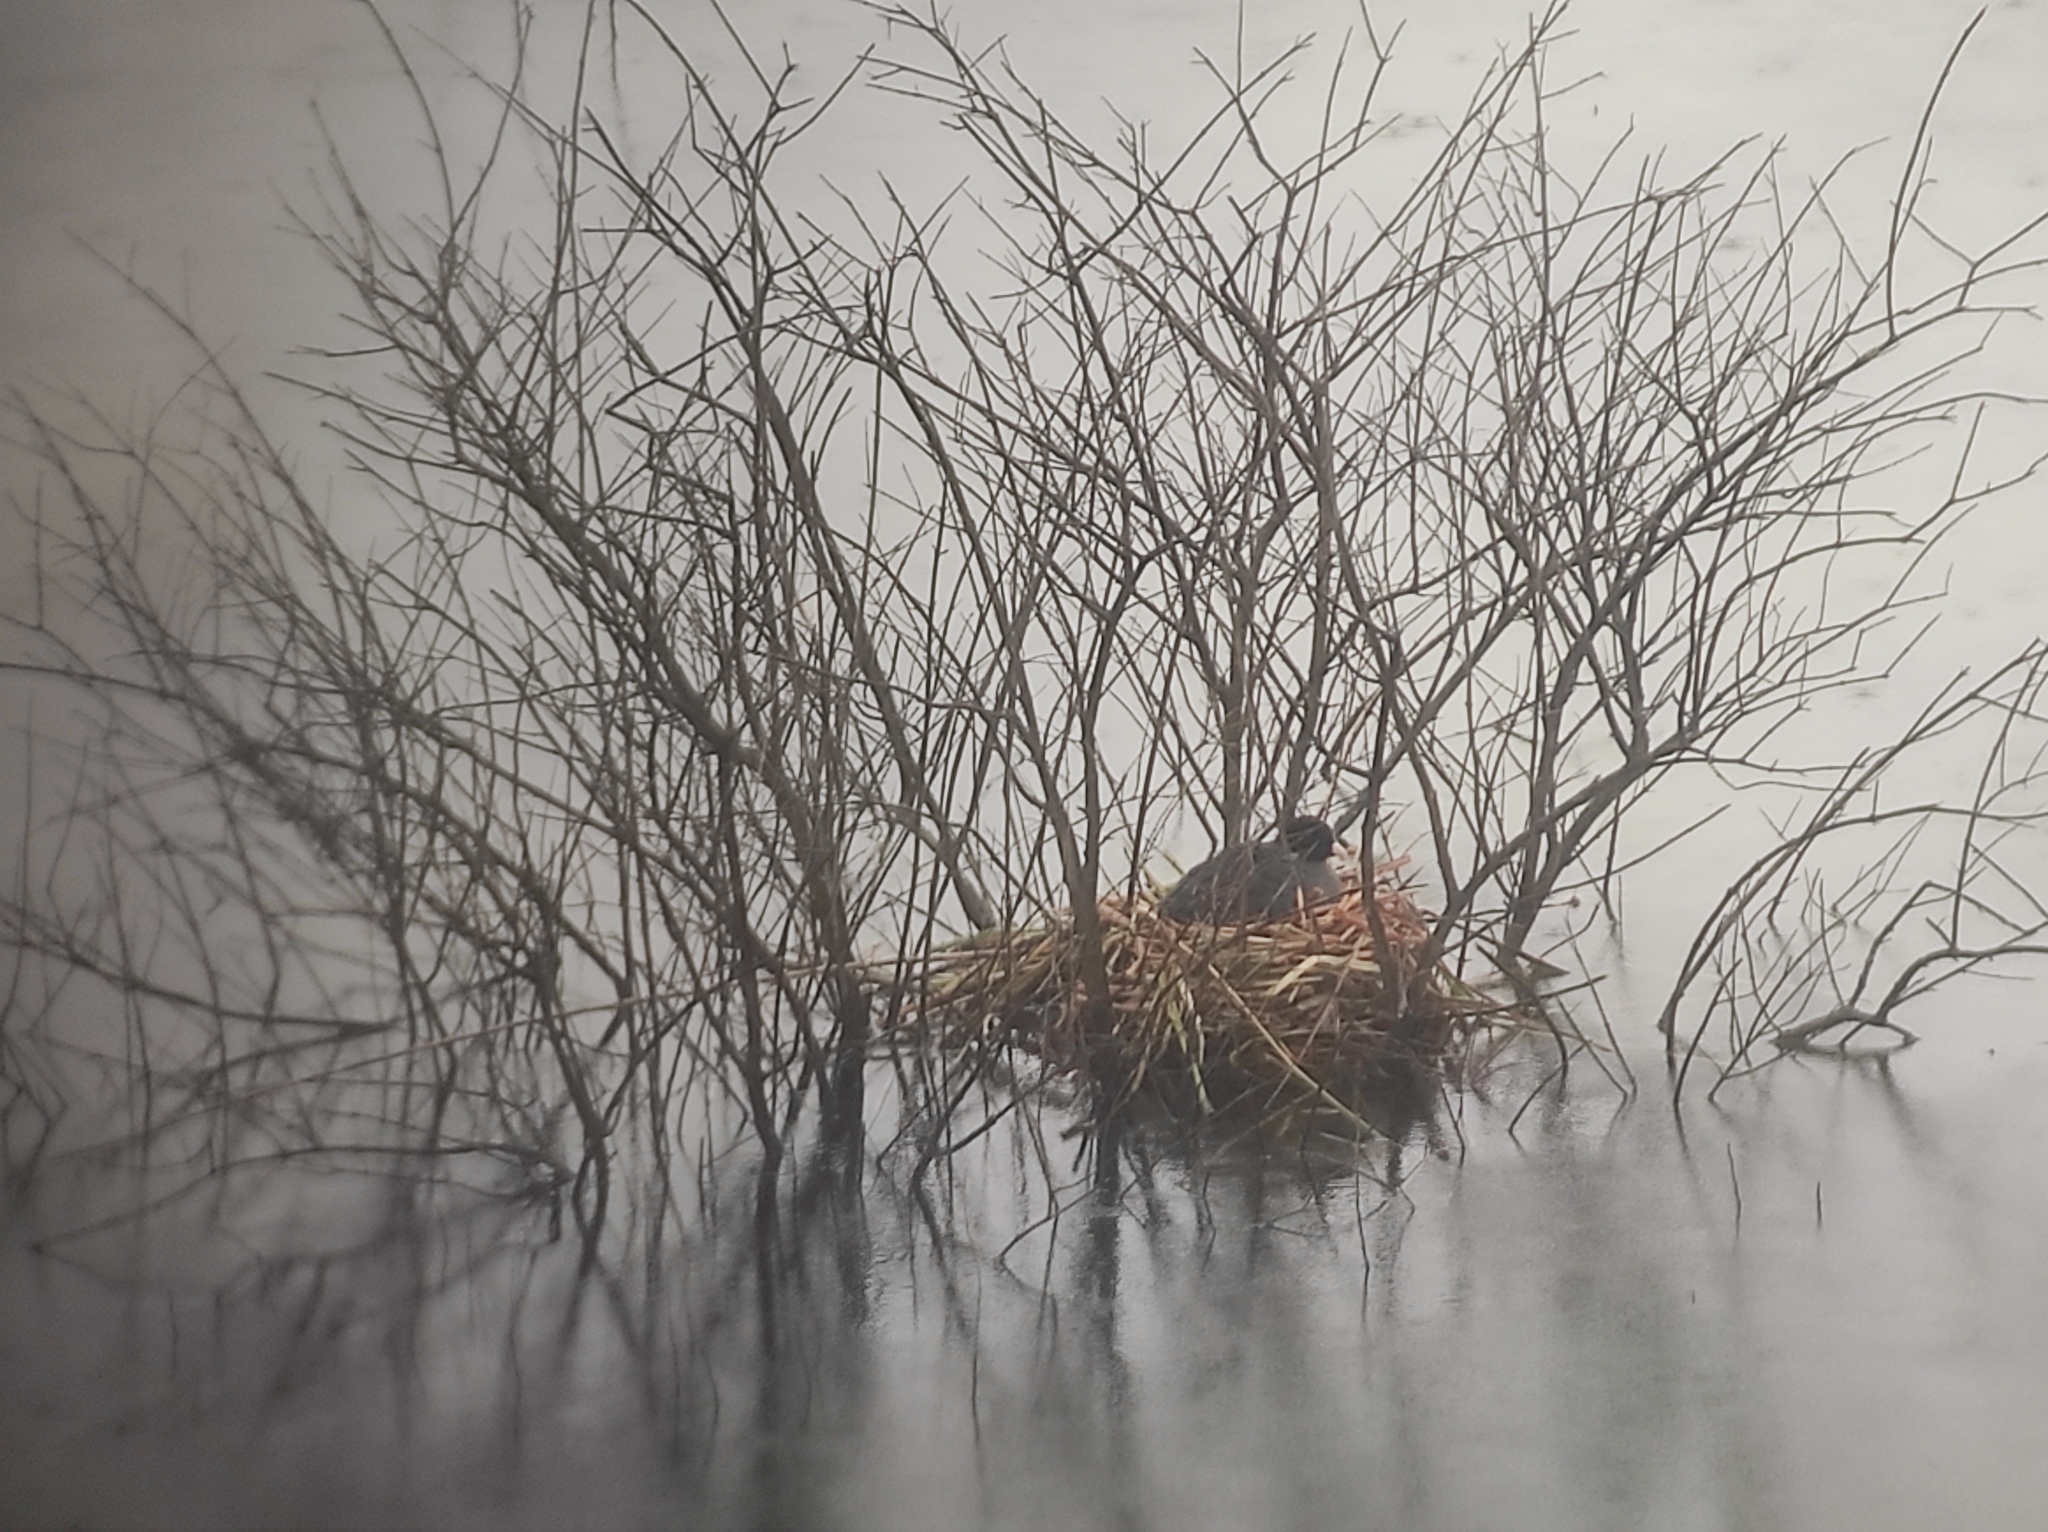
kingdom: Animalia
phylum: Chordata
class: Aves
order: Gruiformes
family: Rallidae
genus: Fulica
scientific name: Fulica atra
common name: Eurasian coot
